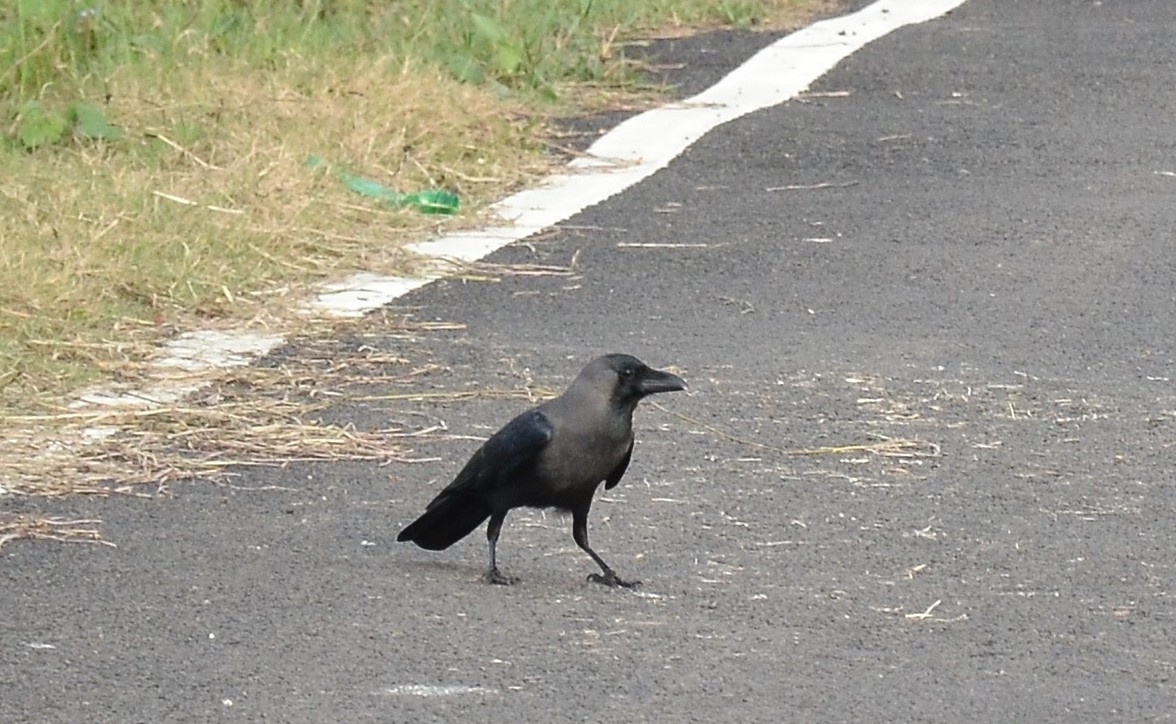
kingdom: Animalia
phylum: Chordata
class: Aves
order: Passeriformes
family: Corvidae
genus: Corvus
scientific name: Corvus splendens
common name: House crow
